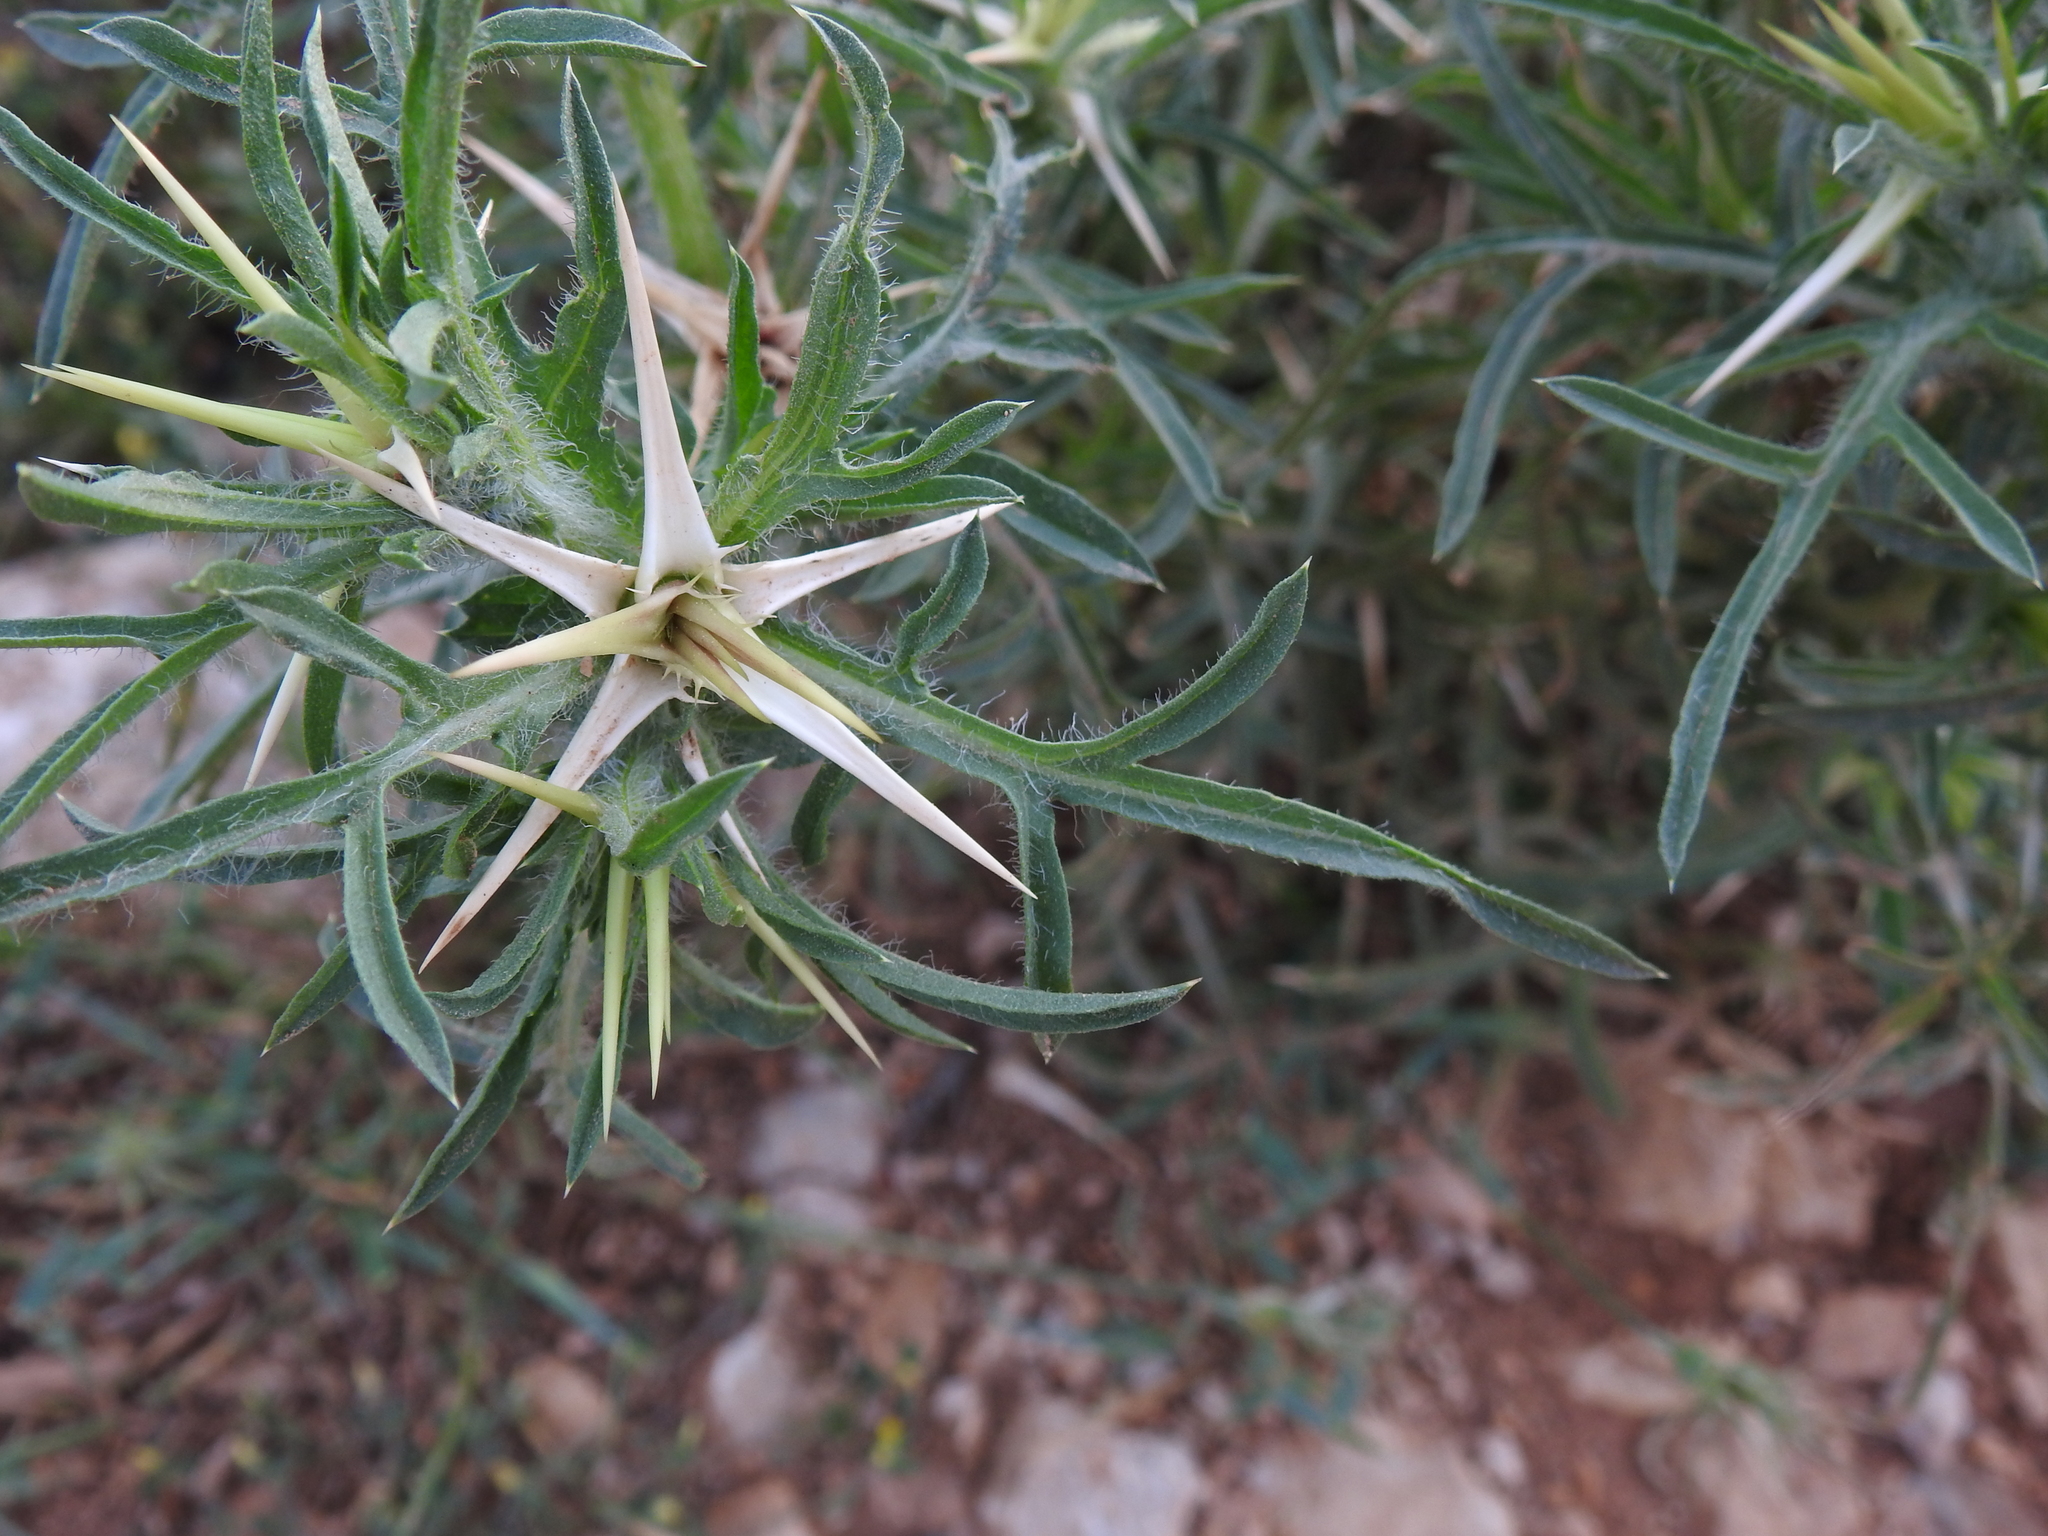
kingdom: Plantae
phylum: Tracheophyta
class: Magnoliopsida
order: Asterales
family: Asteraceae
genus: Centaurea
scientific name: Centaurea calcitrapa
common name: Red star-thistle
